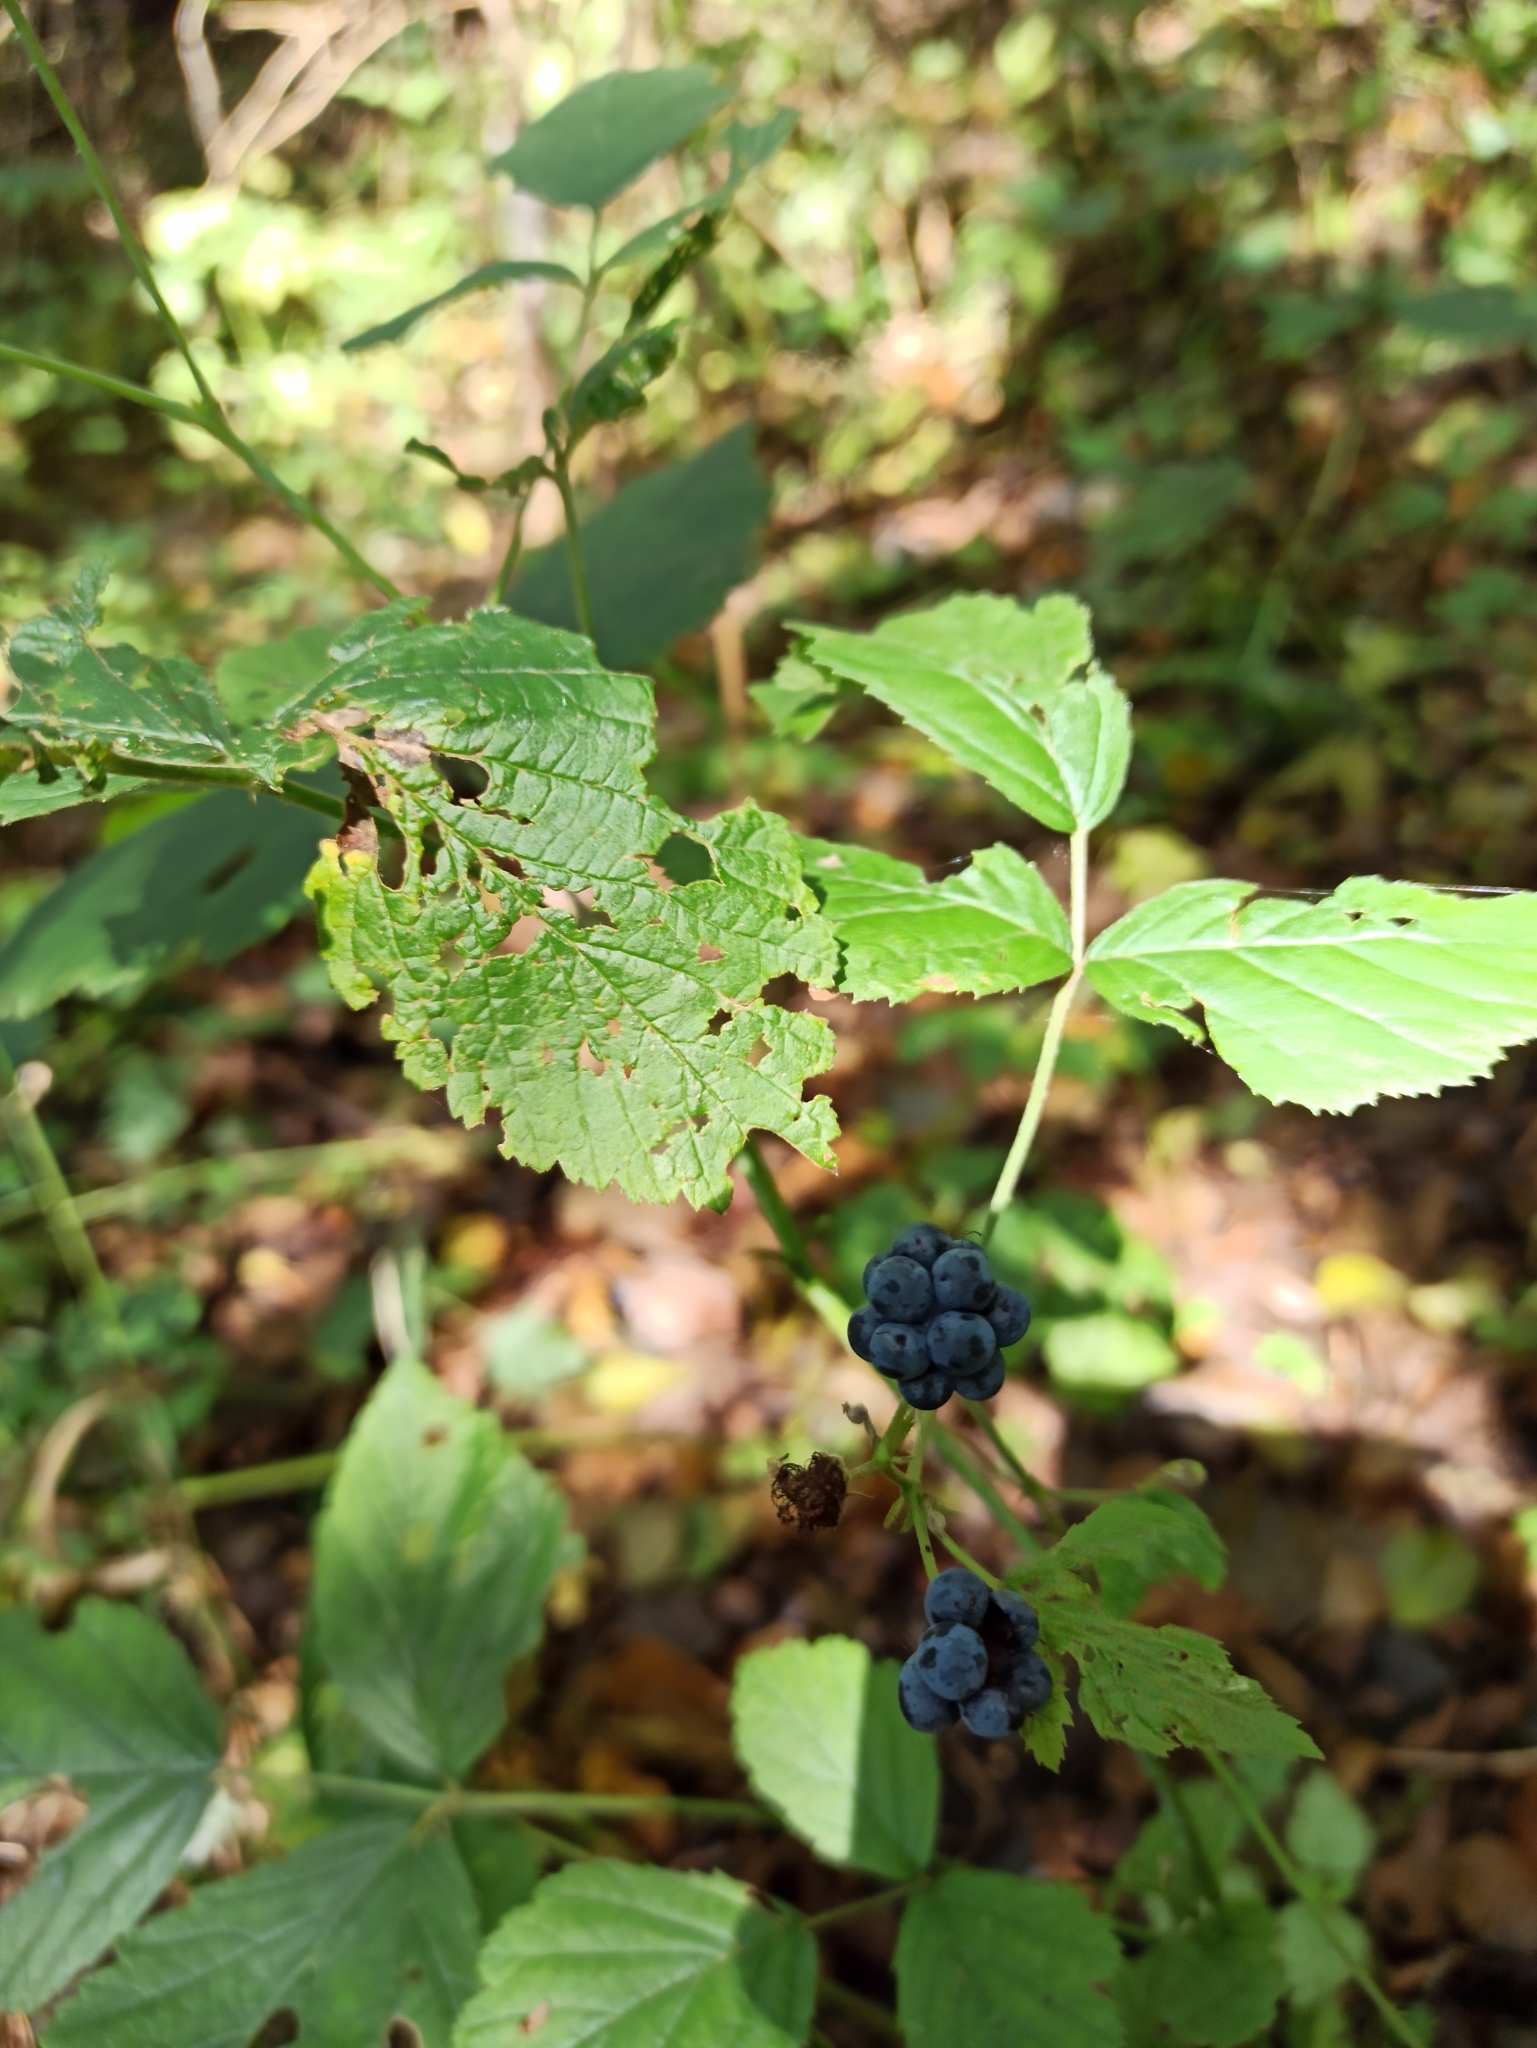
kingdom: Plantae
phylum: Tracheophyta
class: Magnoliopsida
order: Rosales
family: Rosaceae
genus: Rubus
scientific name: Rubus caesius
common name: Dewberry
